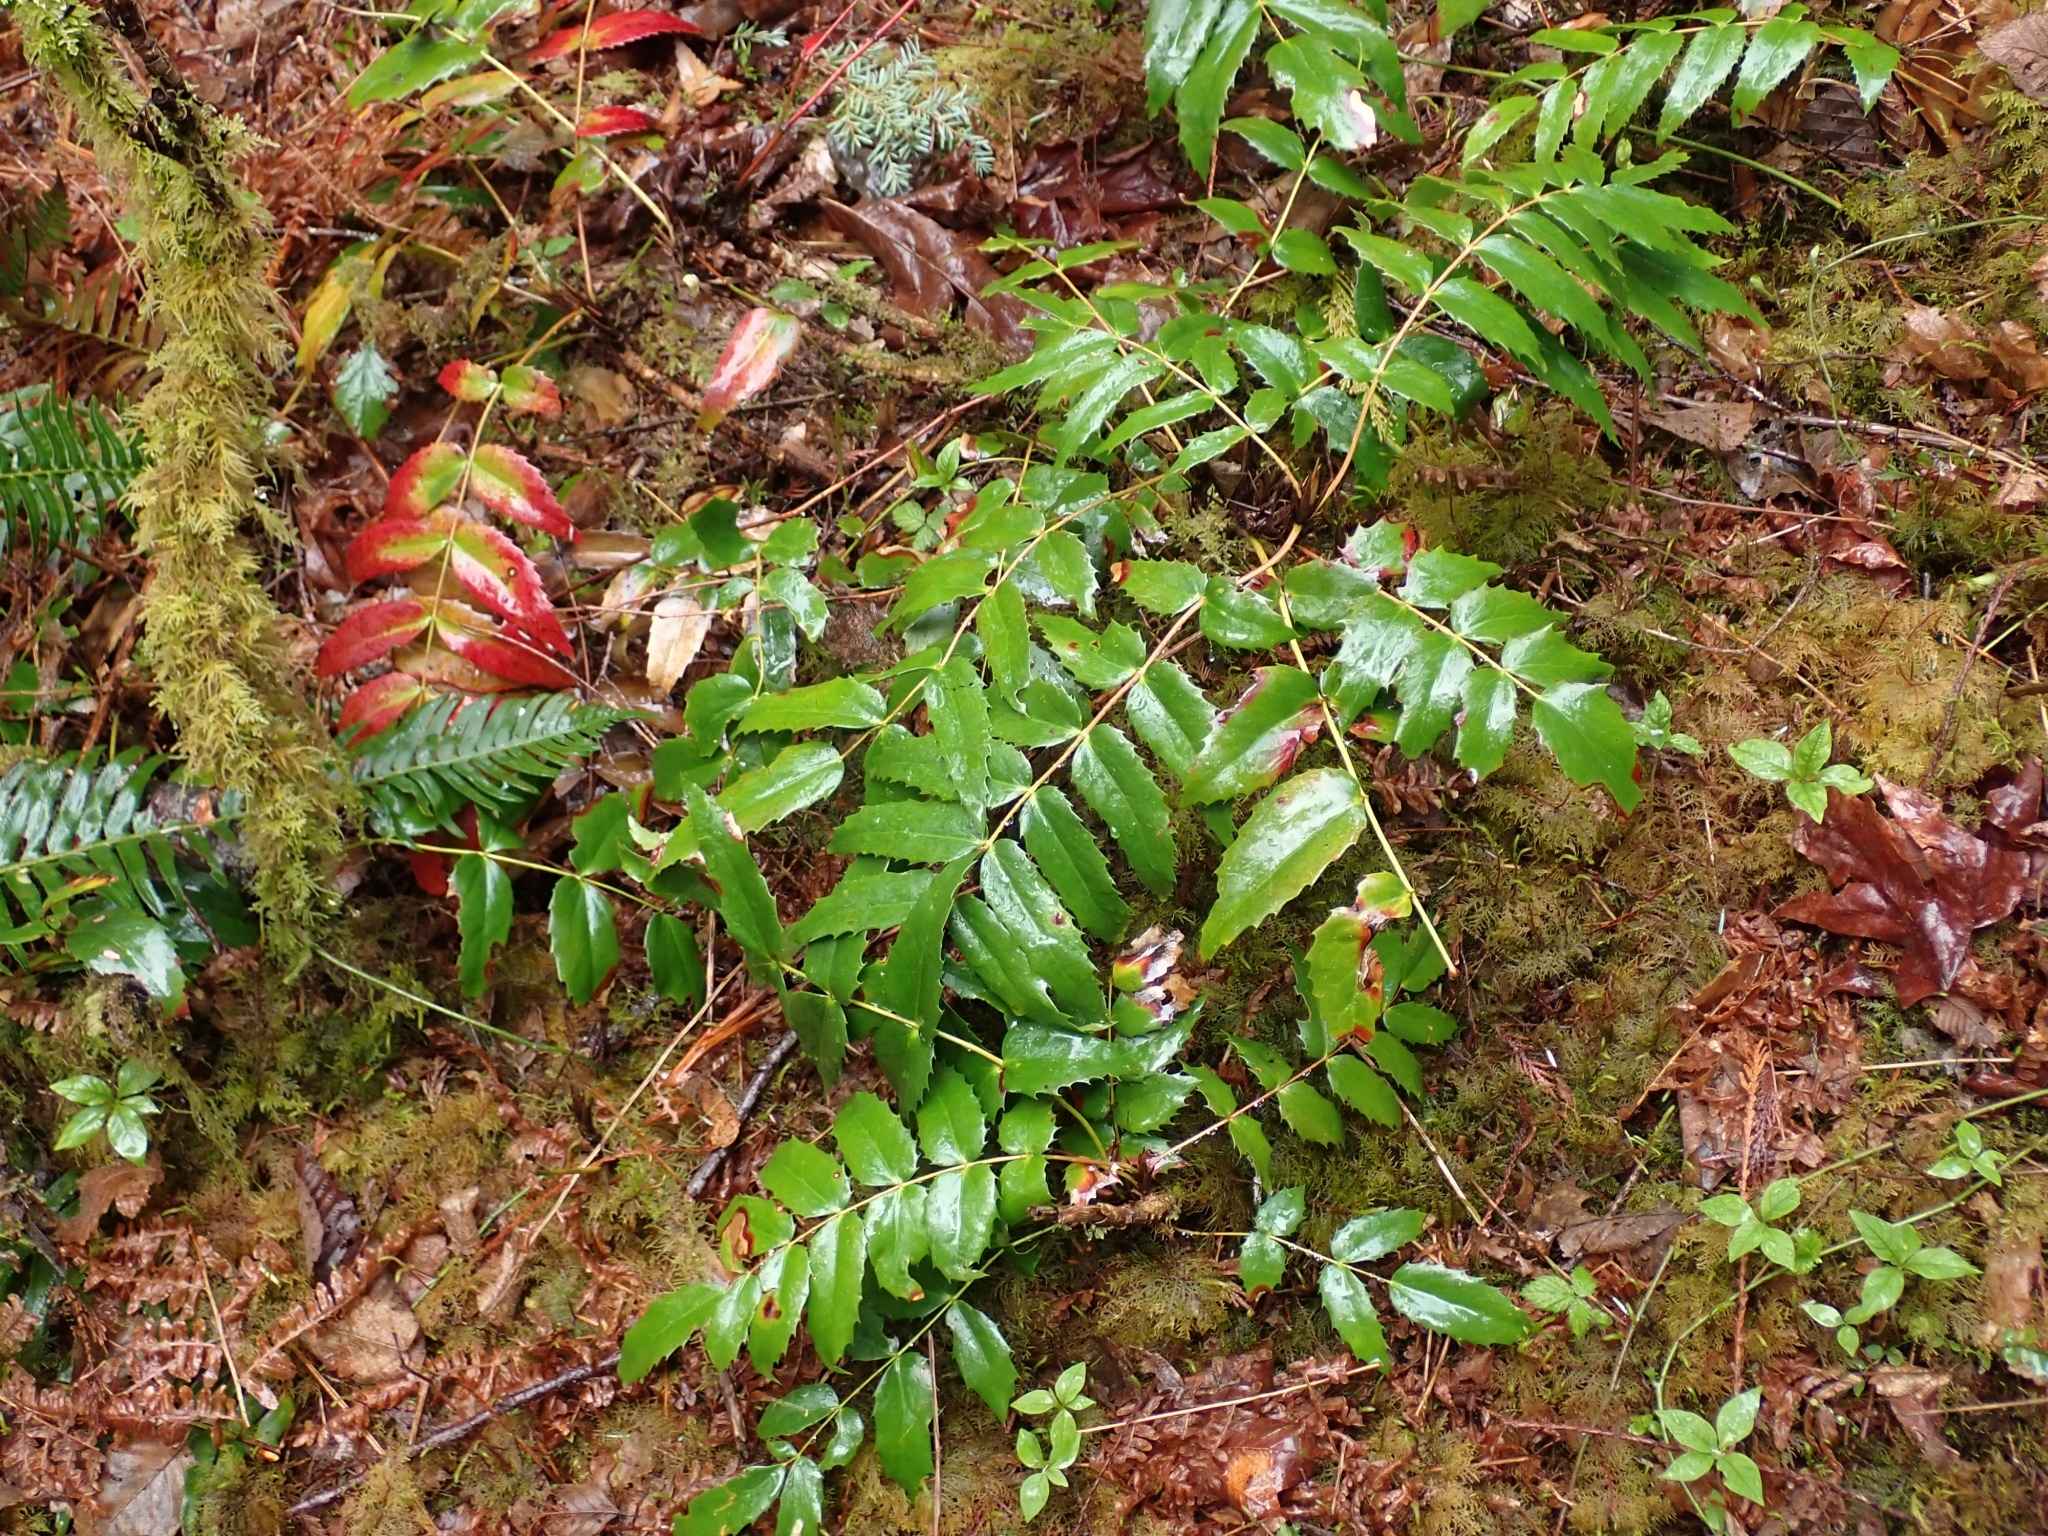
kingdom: Plantae
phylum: Tracheophyta
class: Magnoliopsida
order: Ranunculales
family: Berberidaceae
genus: Mahonia
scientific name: Mahonia nervosa
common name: Cascade oregon-grape
